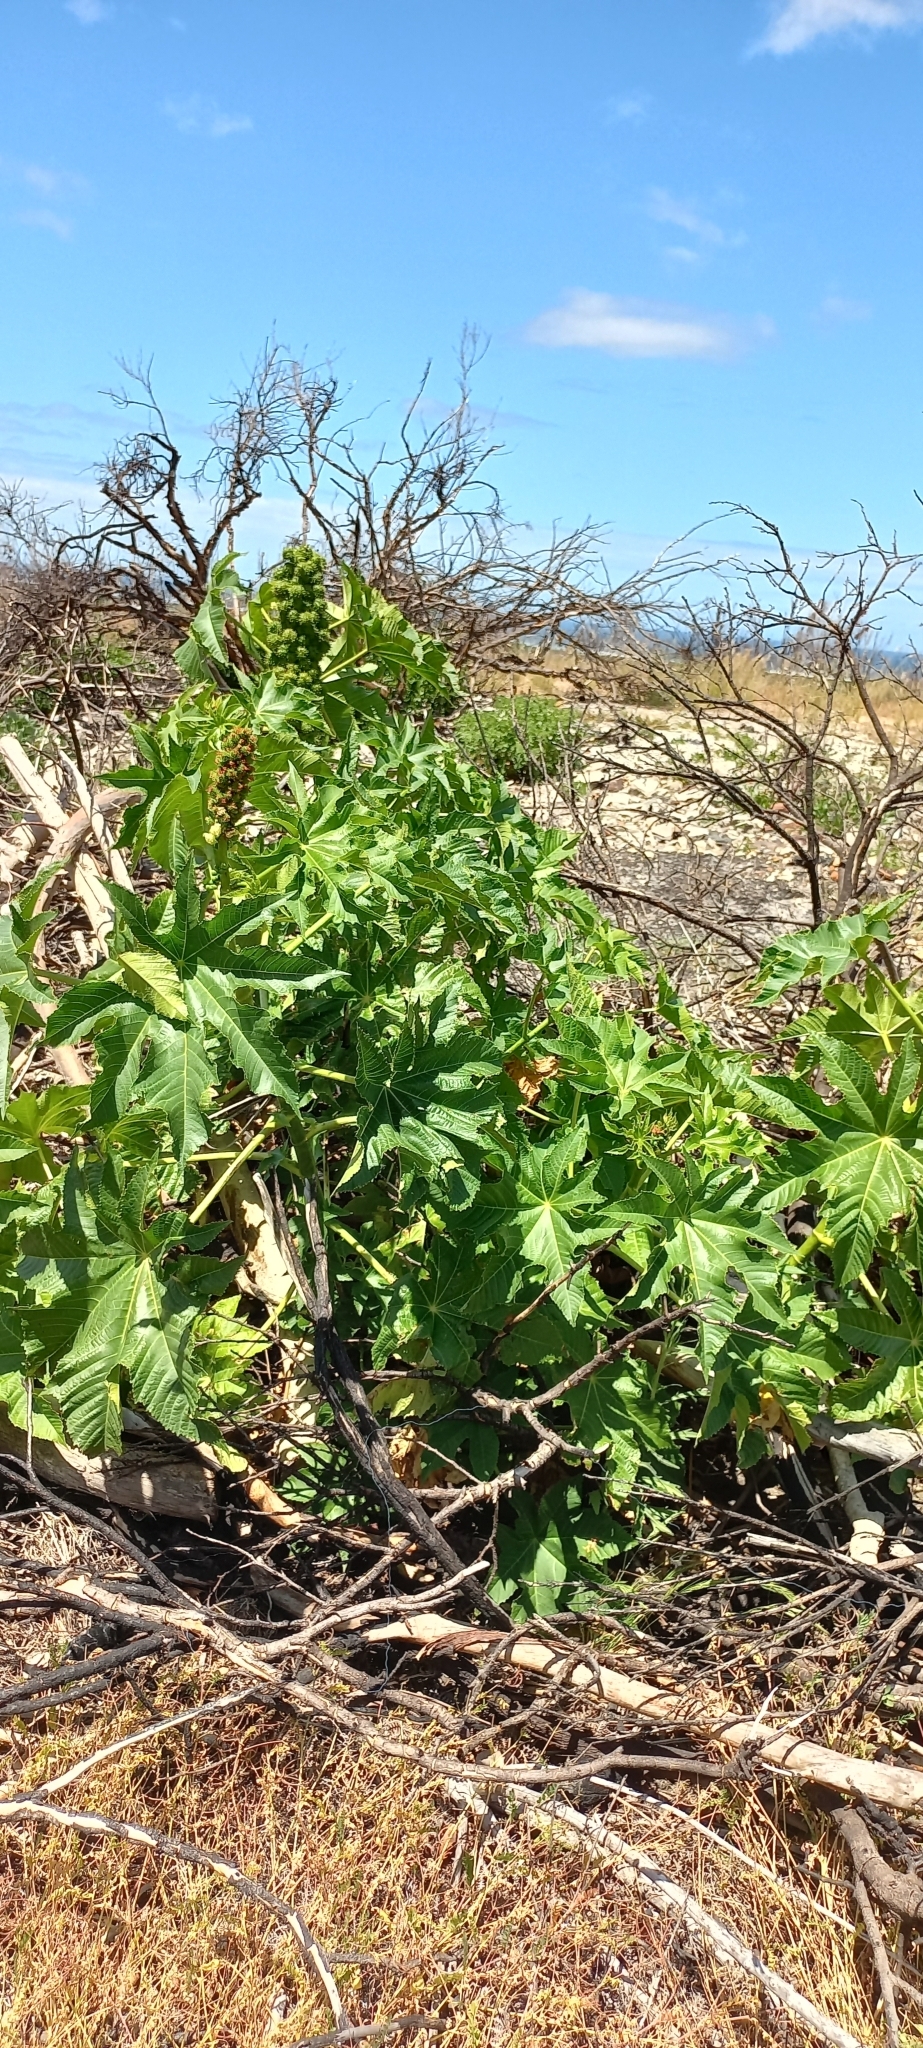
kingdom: Plantae
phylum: Tracheophyta
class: Magnoliopsida
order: Malpighiales
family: Euphorbiaceae
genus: Ricinus
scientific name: Ricinus communis
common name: Castor-oil-plant
